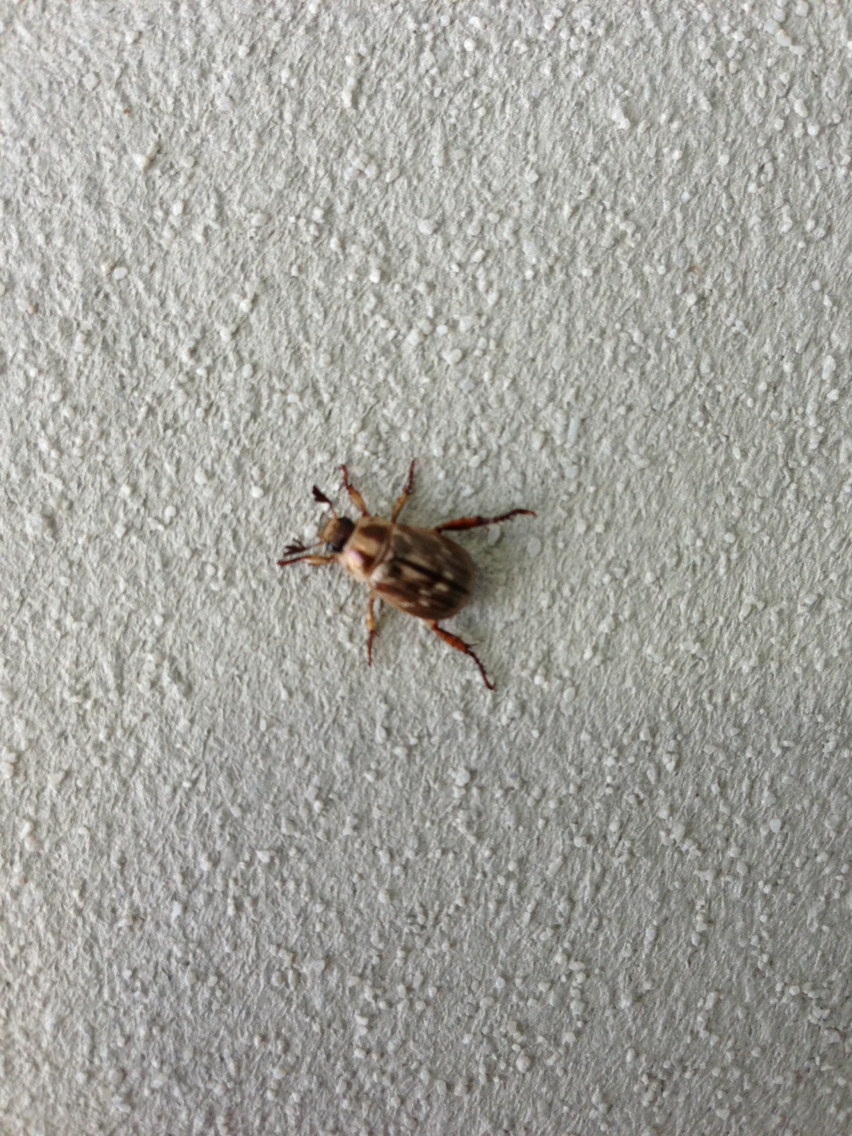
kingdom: Animalia
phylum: Arthropoda
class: Insecta
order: Coleoptera
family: Scarabaeidae
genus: Exomala
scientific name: Exomala orientalis
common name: Oriental beetle
